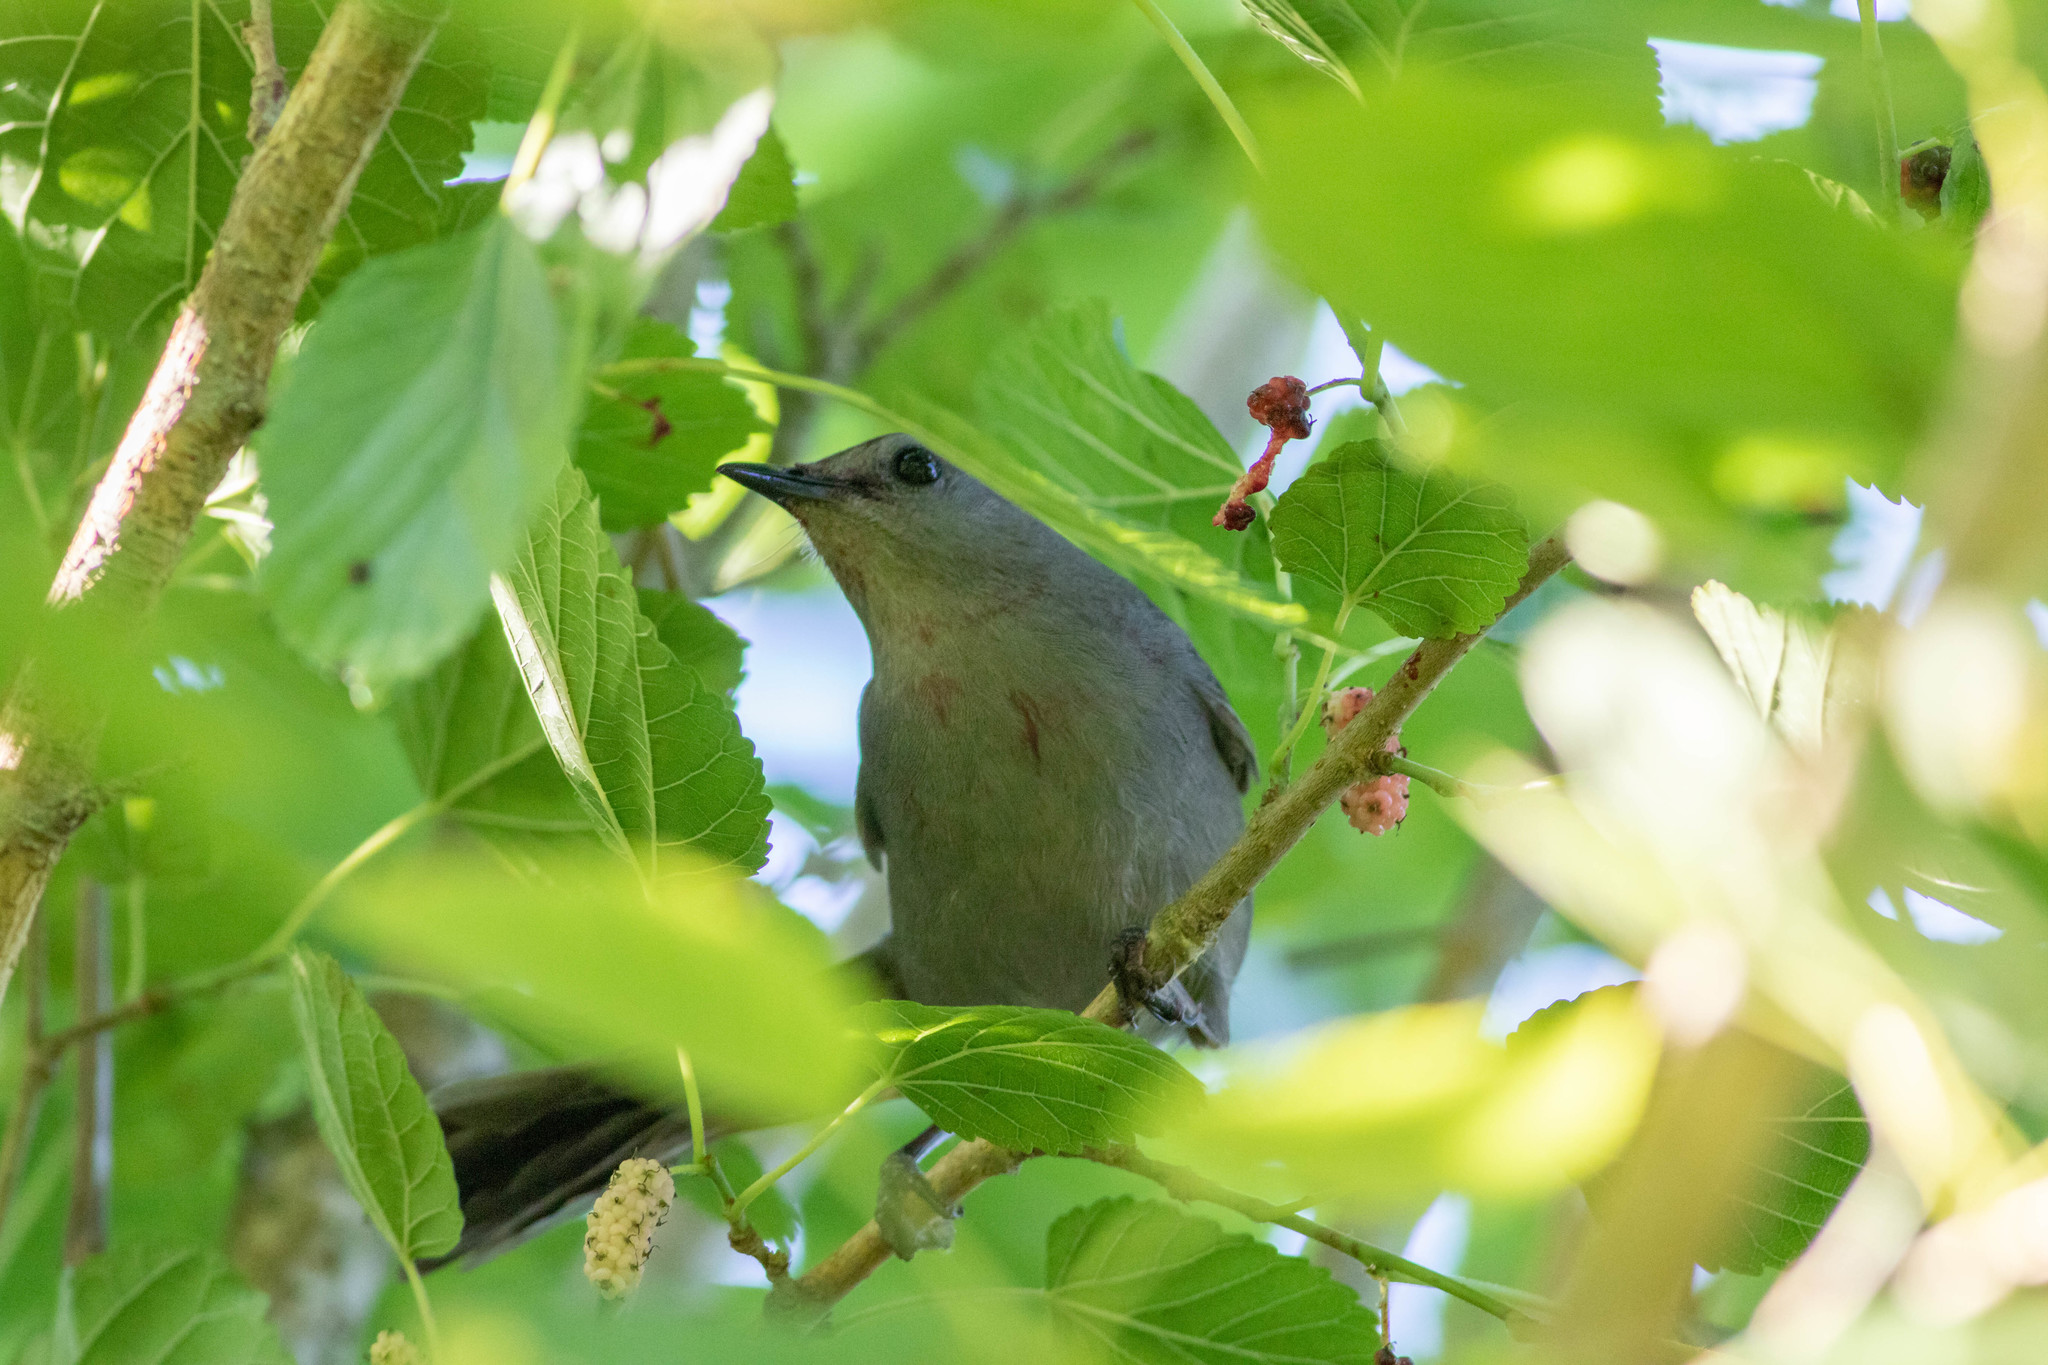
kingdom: Animalia
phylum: Chordata
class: Aves
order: Passeriformes
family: Mimidae
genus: Dumetella
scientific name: Dumetella carolinensis
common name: Gray catbird
